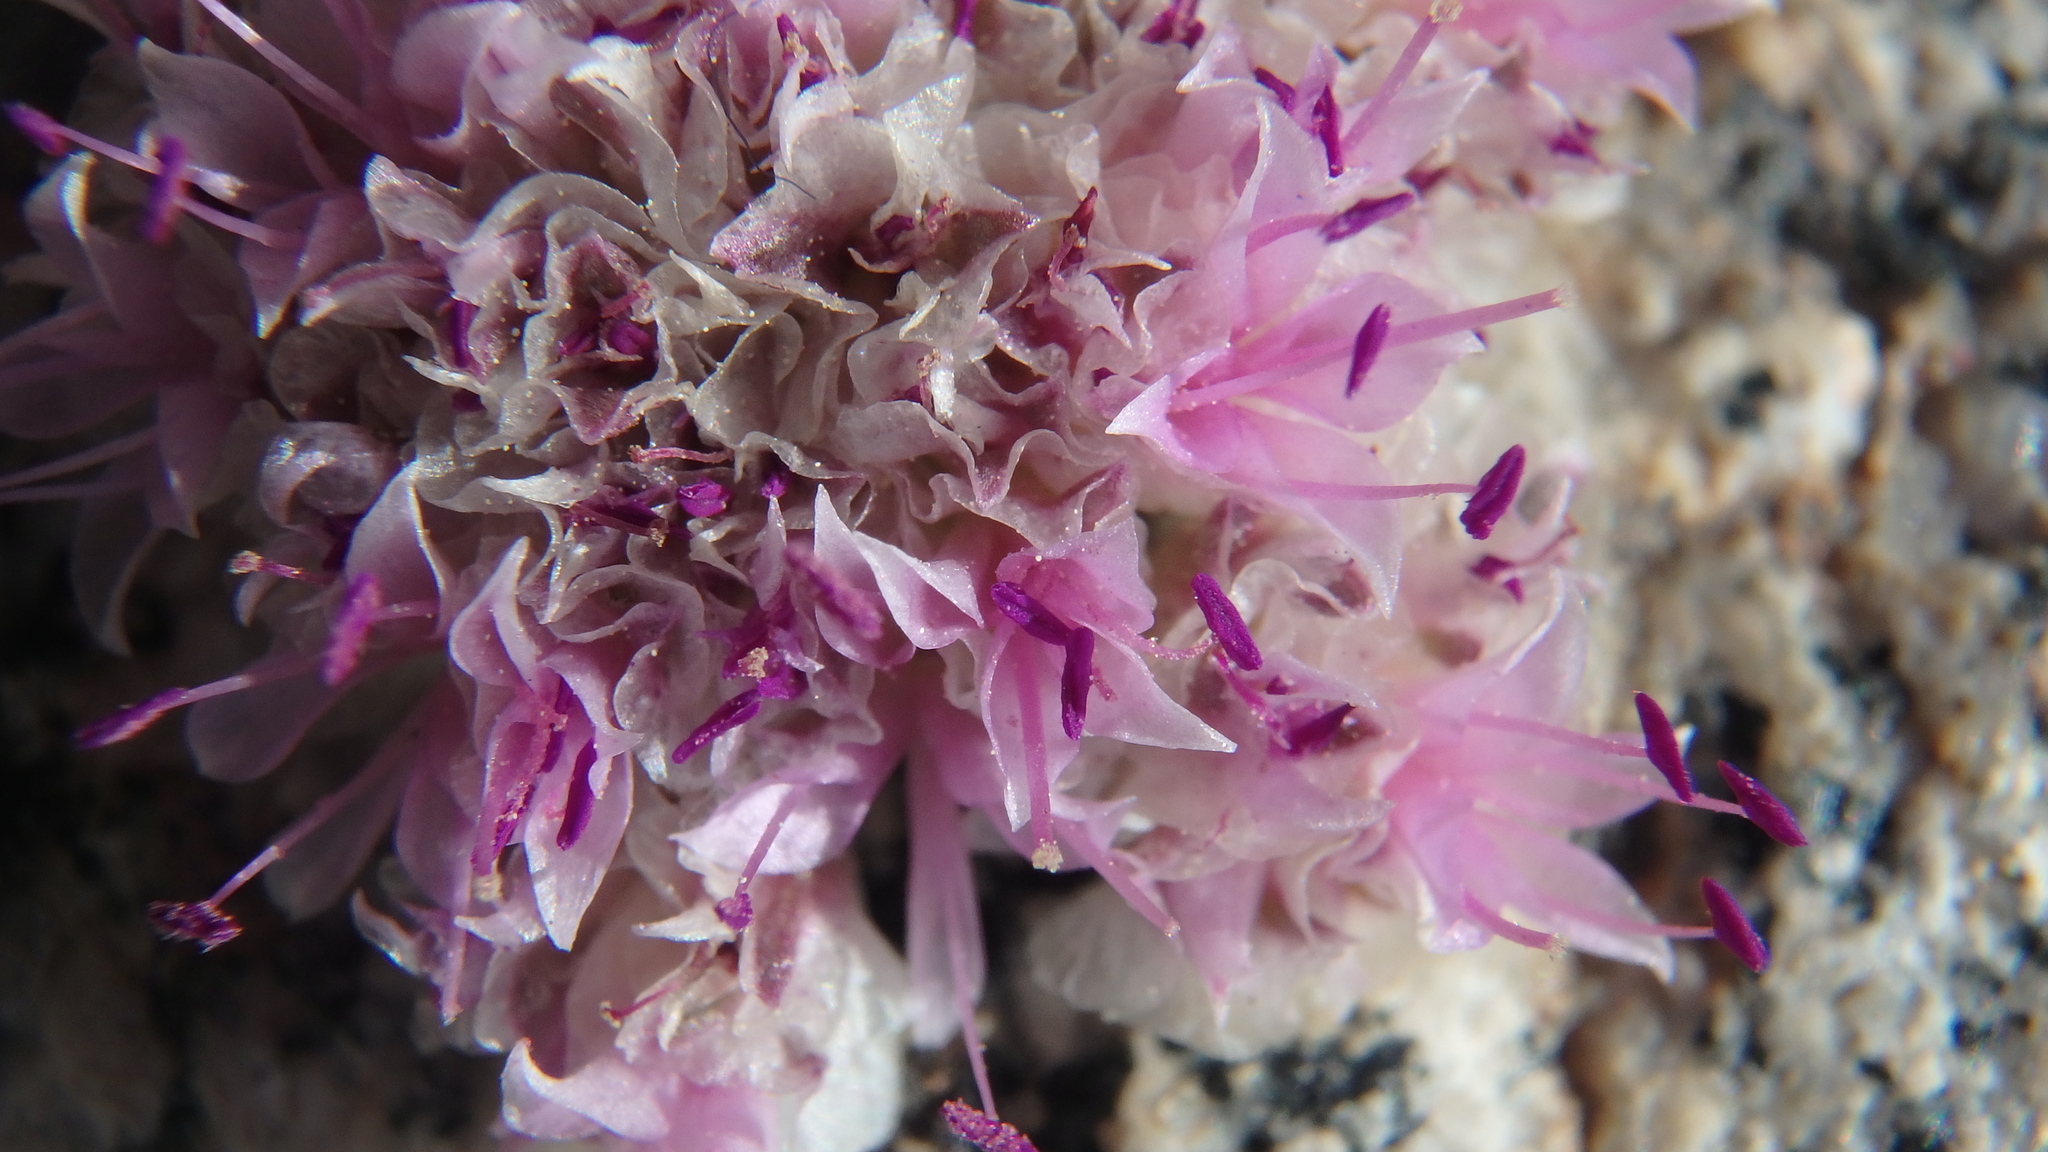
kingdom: Plantae
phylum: Tracheophyta
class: Magnoliopsida
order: Caryophyllales
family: Montiaceae
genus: Calyptridium
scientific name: Calyptridium umbellatum
